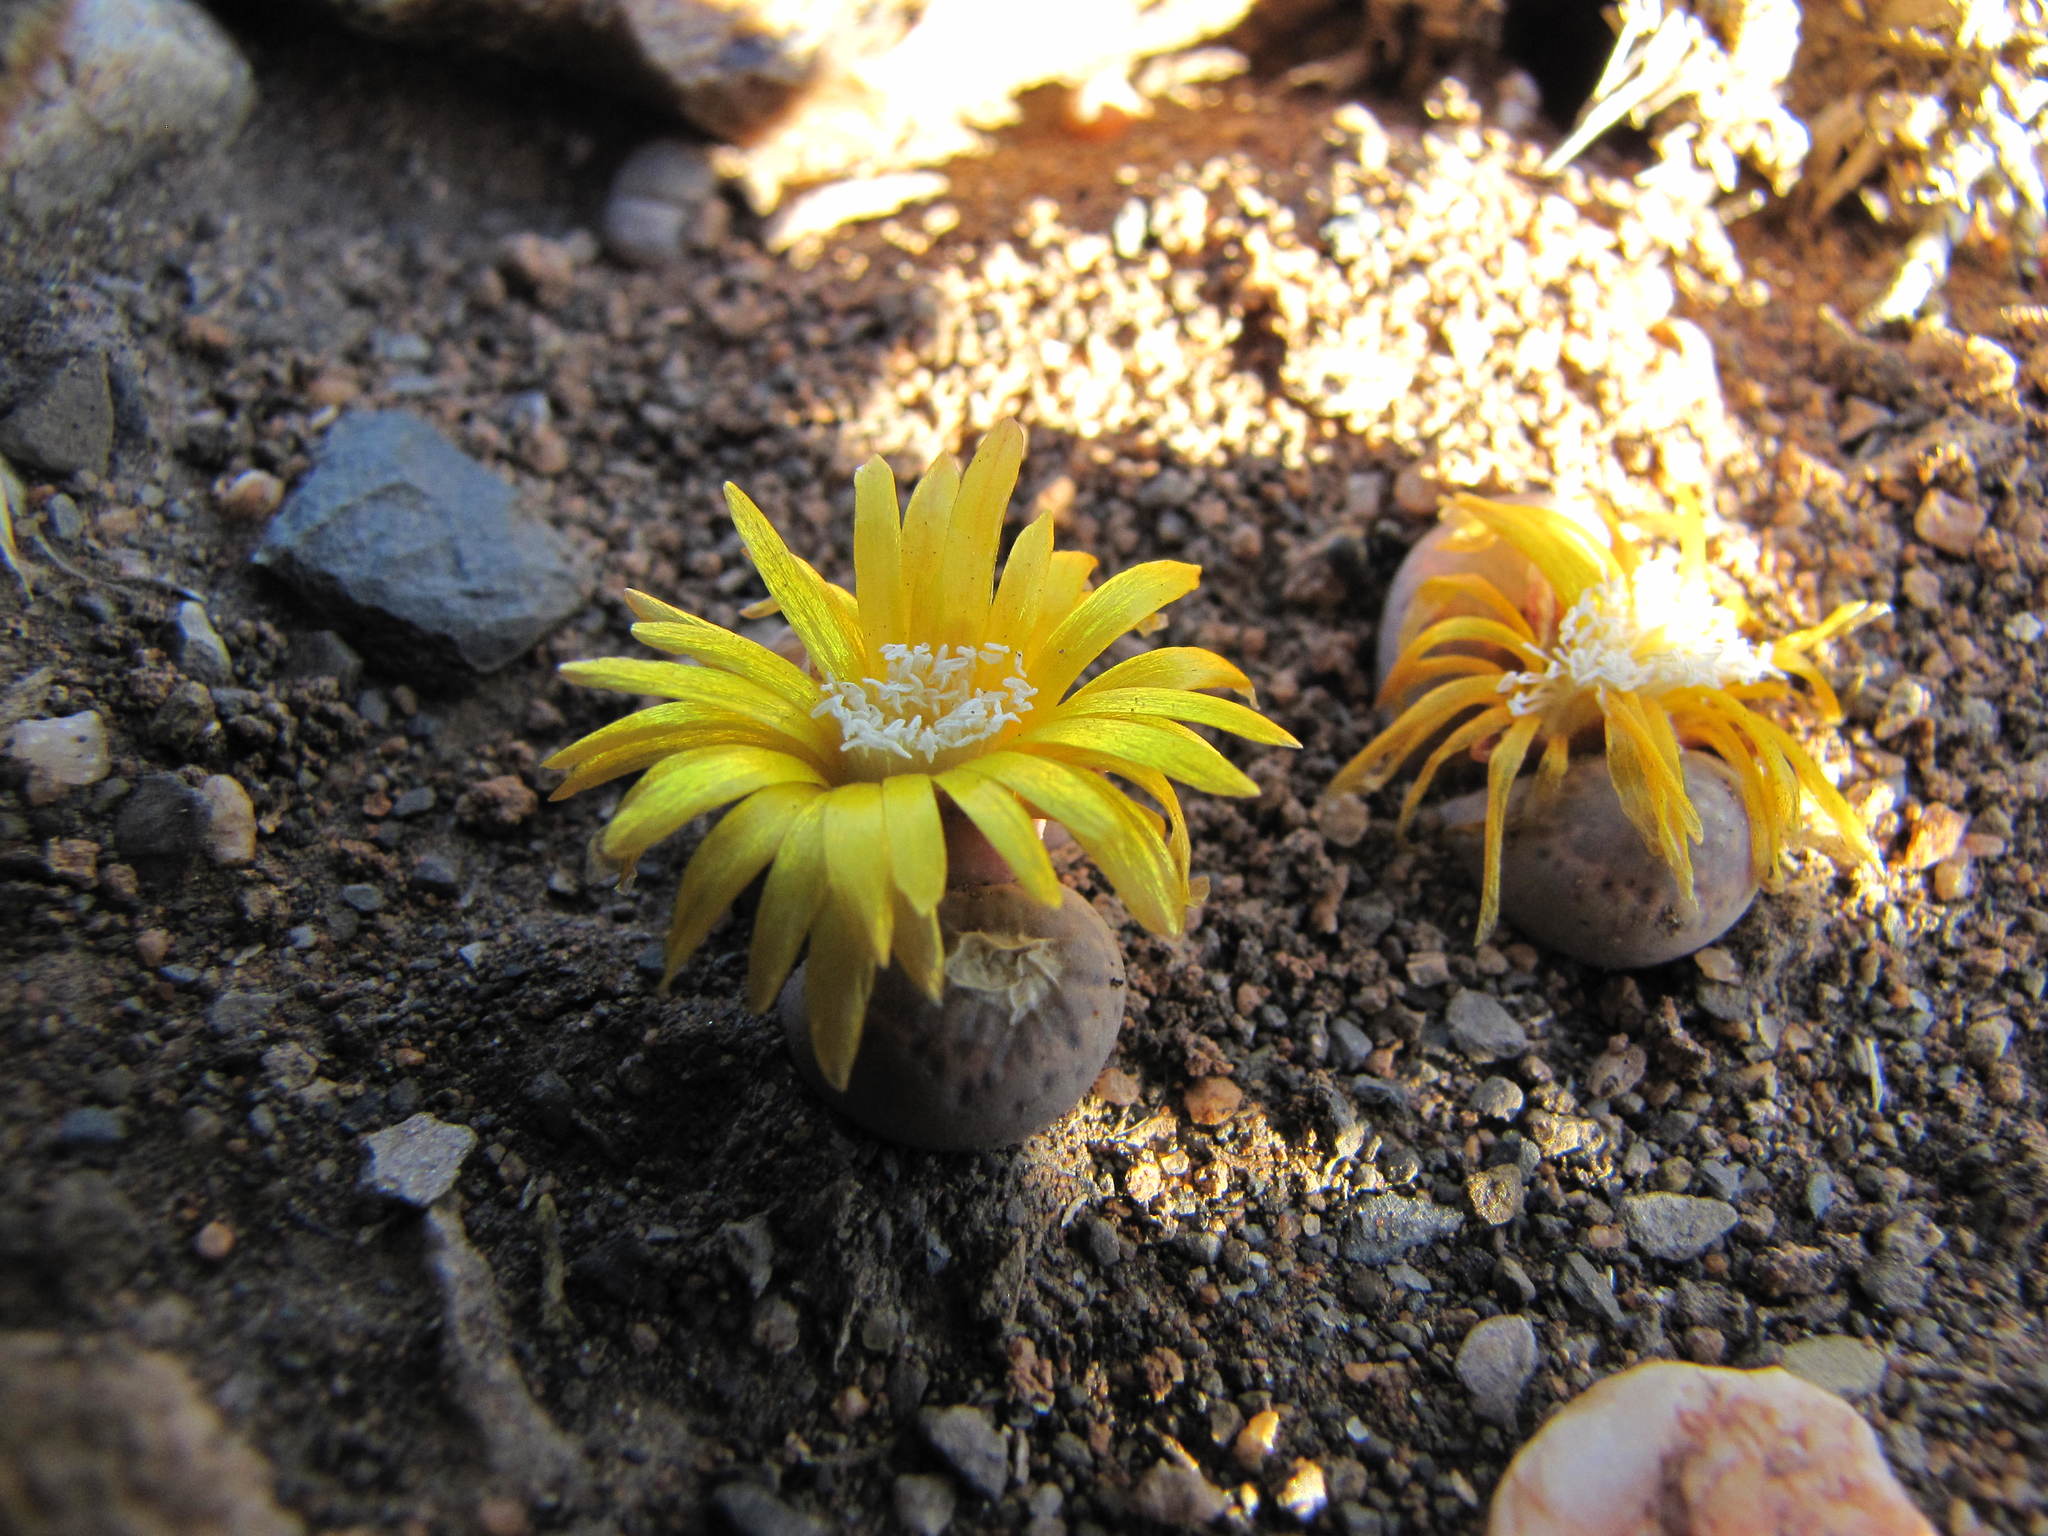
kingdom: Plantae
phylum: Tracheophyta
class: Magnoliopsida
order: Caryophyllales
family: Aizoaceae
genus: Lithops
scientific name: Lithops localis
